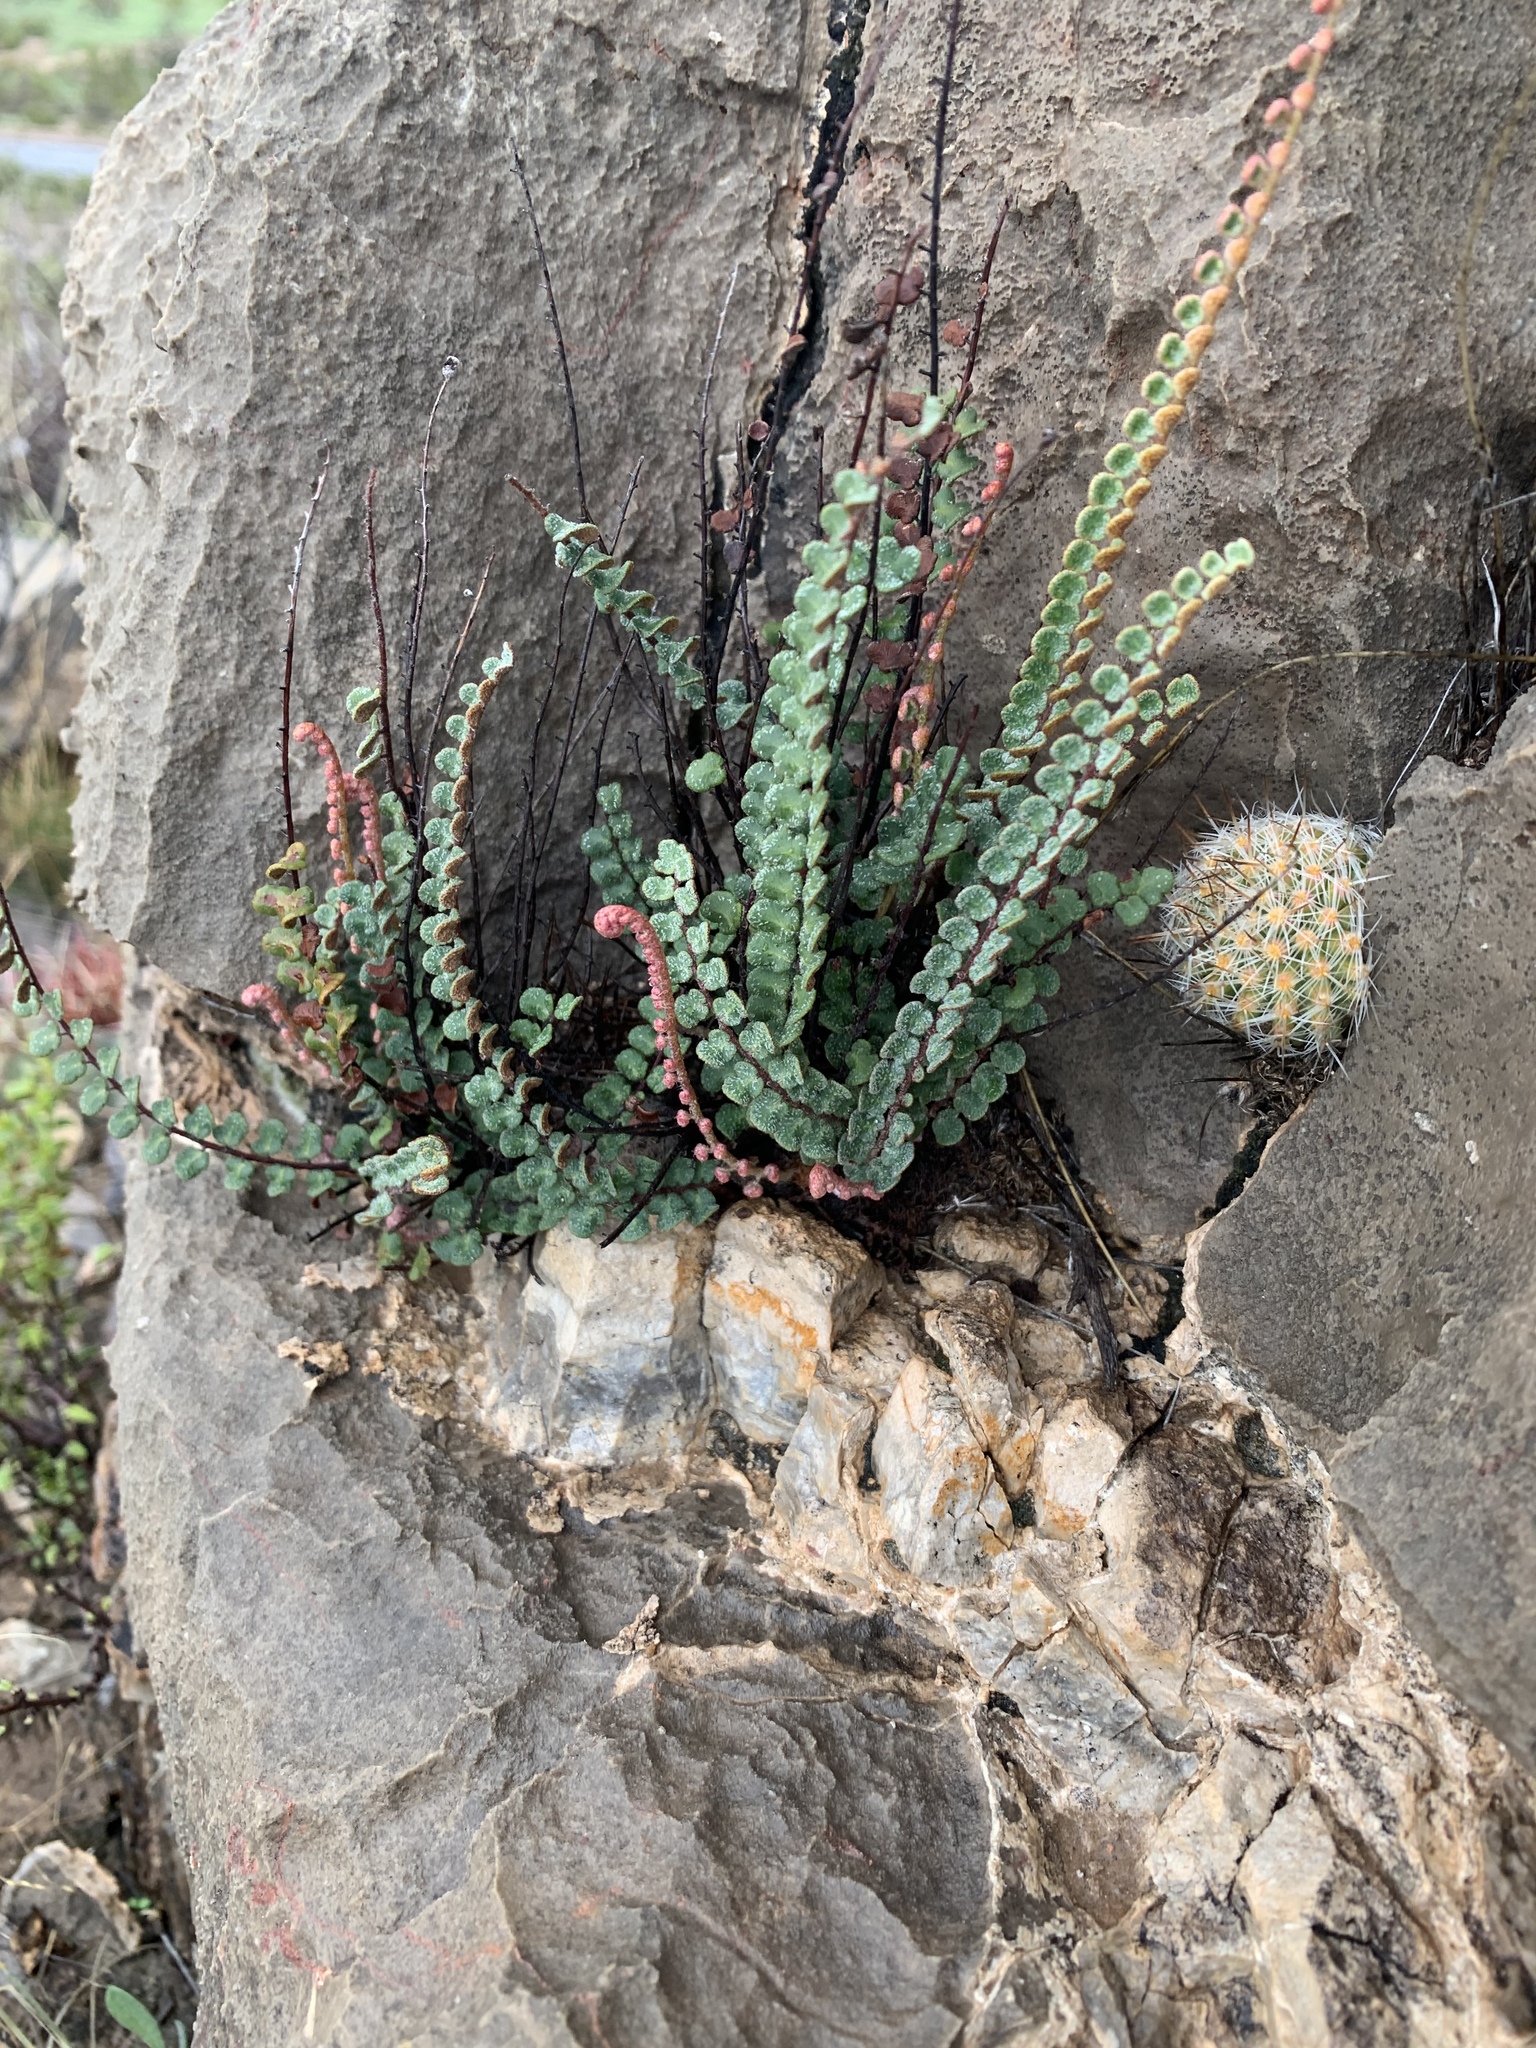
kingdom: Plantae
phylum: Tracheophyta
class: Polypodiopsida
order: Polypodiales
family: Pteridaceae
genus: Astrolepis
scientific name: Astrolepis cochisensis
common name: Scaly cloak fern
